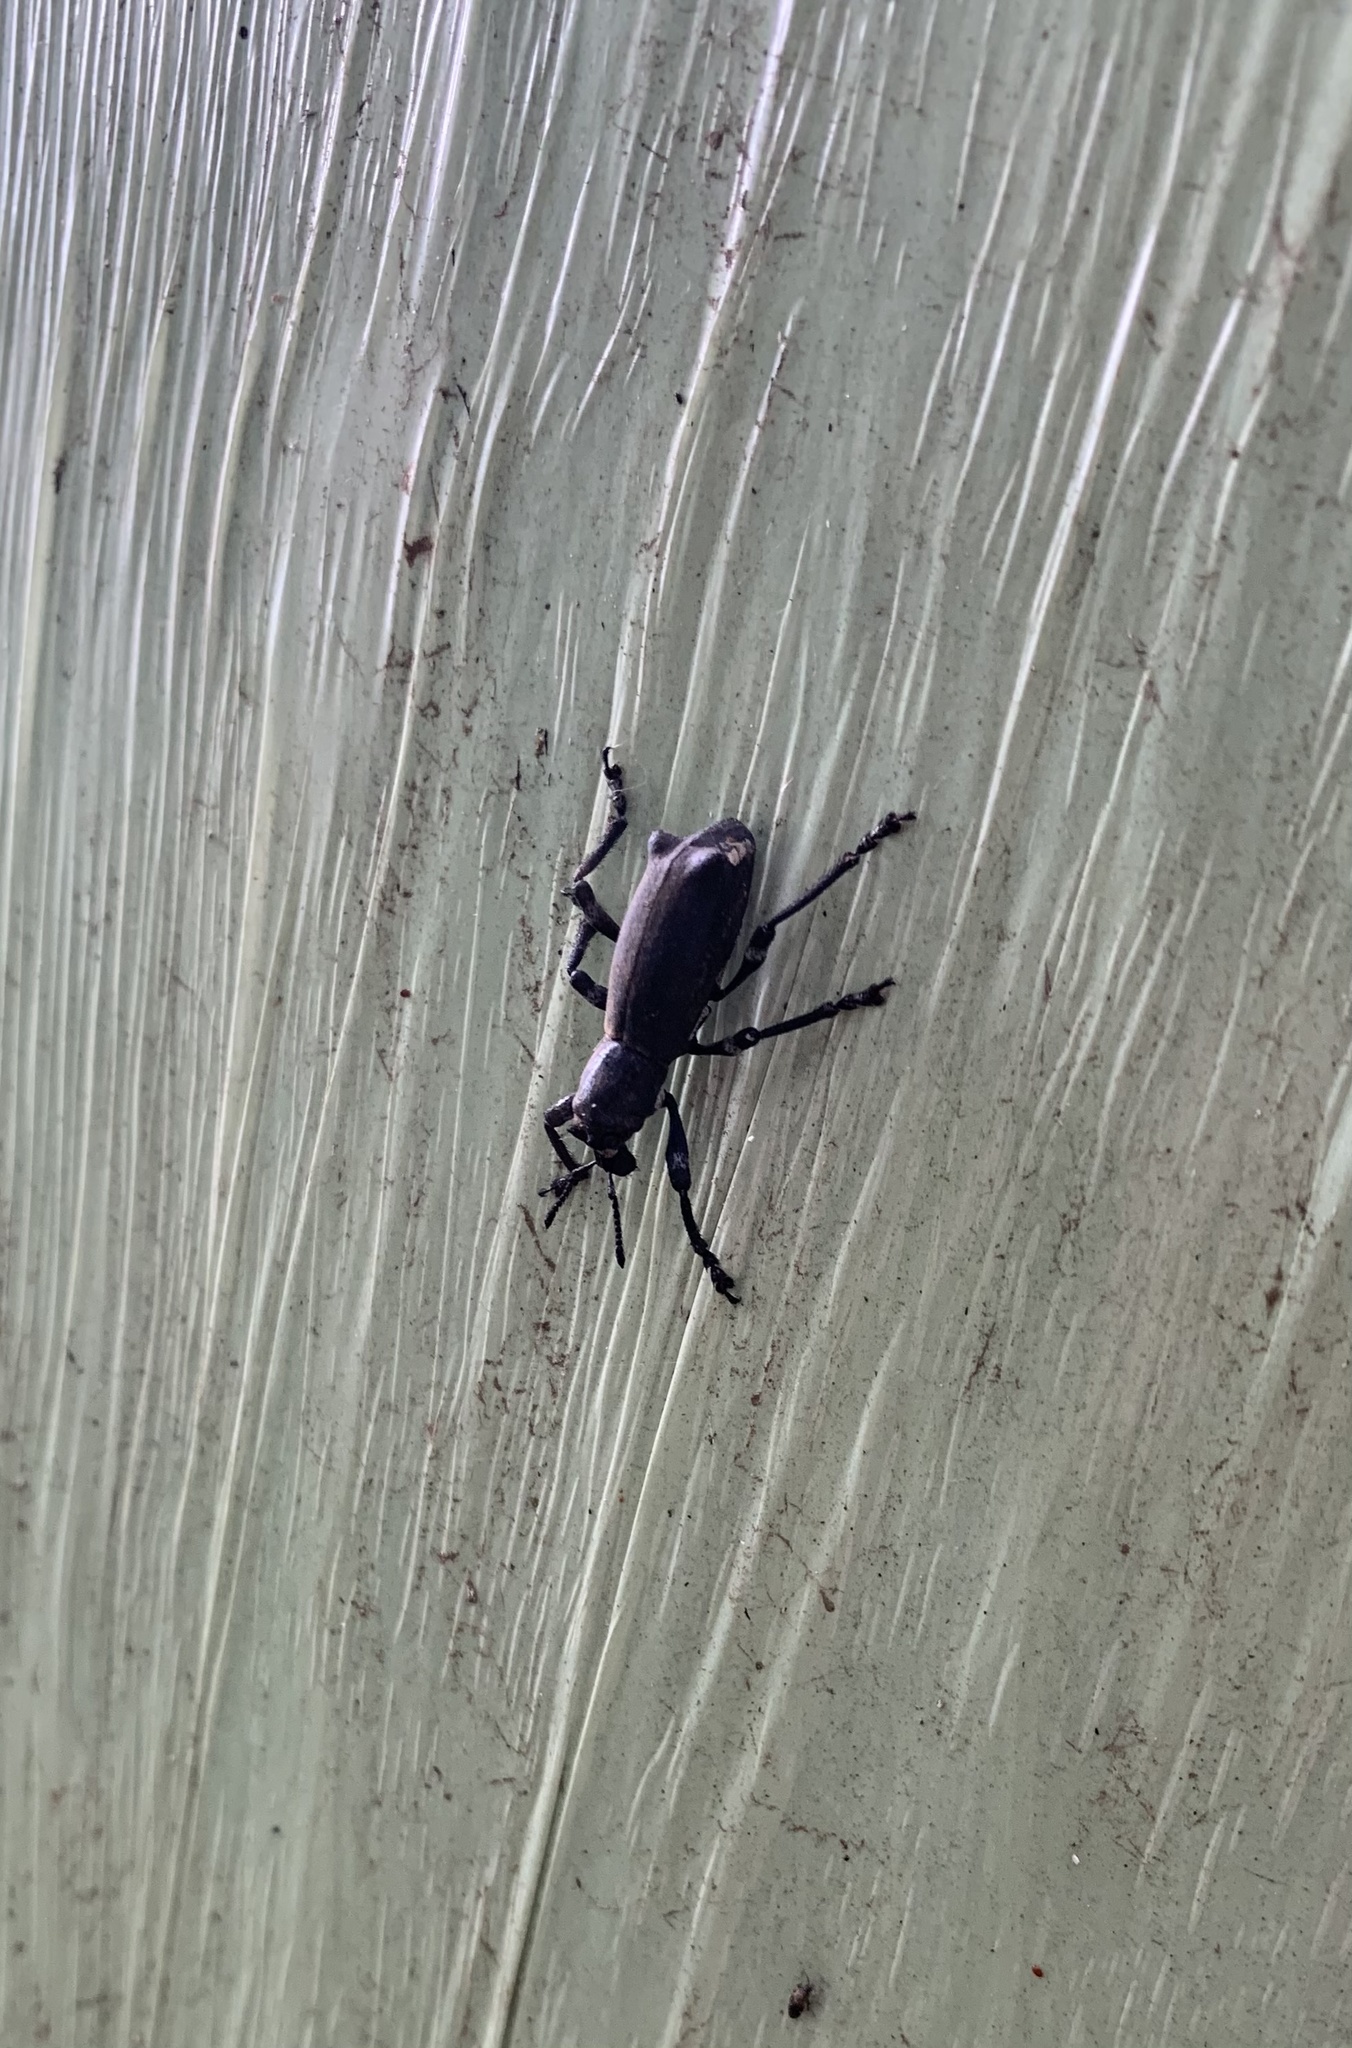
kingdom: Animalia
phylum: Arthropoda
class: Insecta
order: Coleoptera
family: Curculionidae
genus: Aegorhinus
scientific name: Aegorhinus
